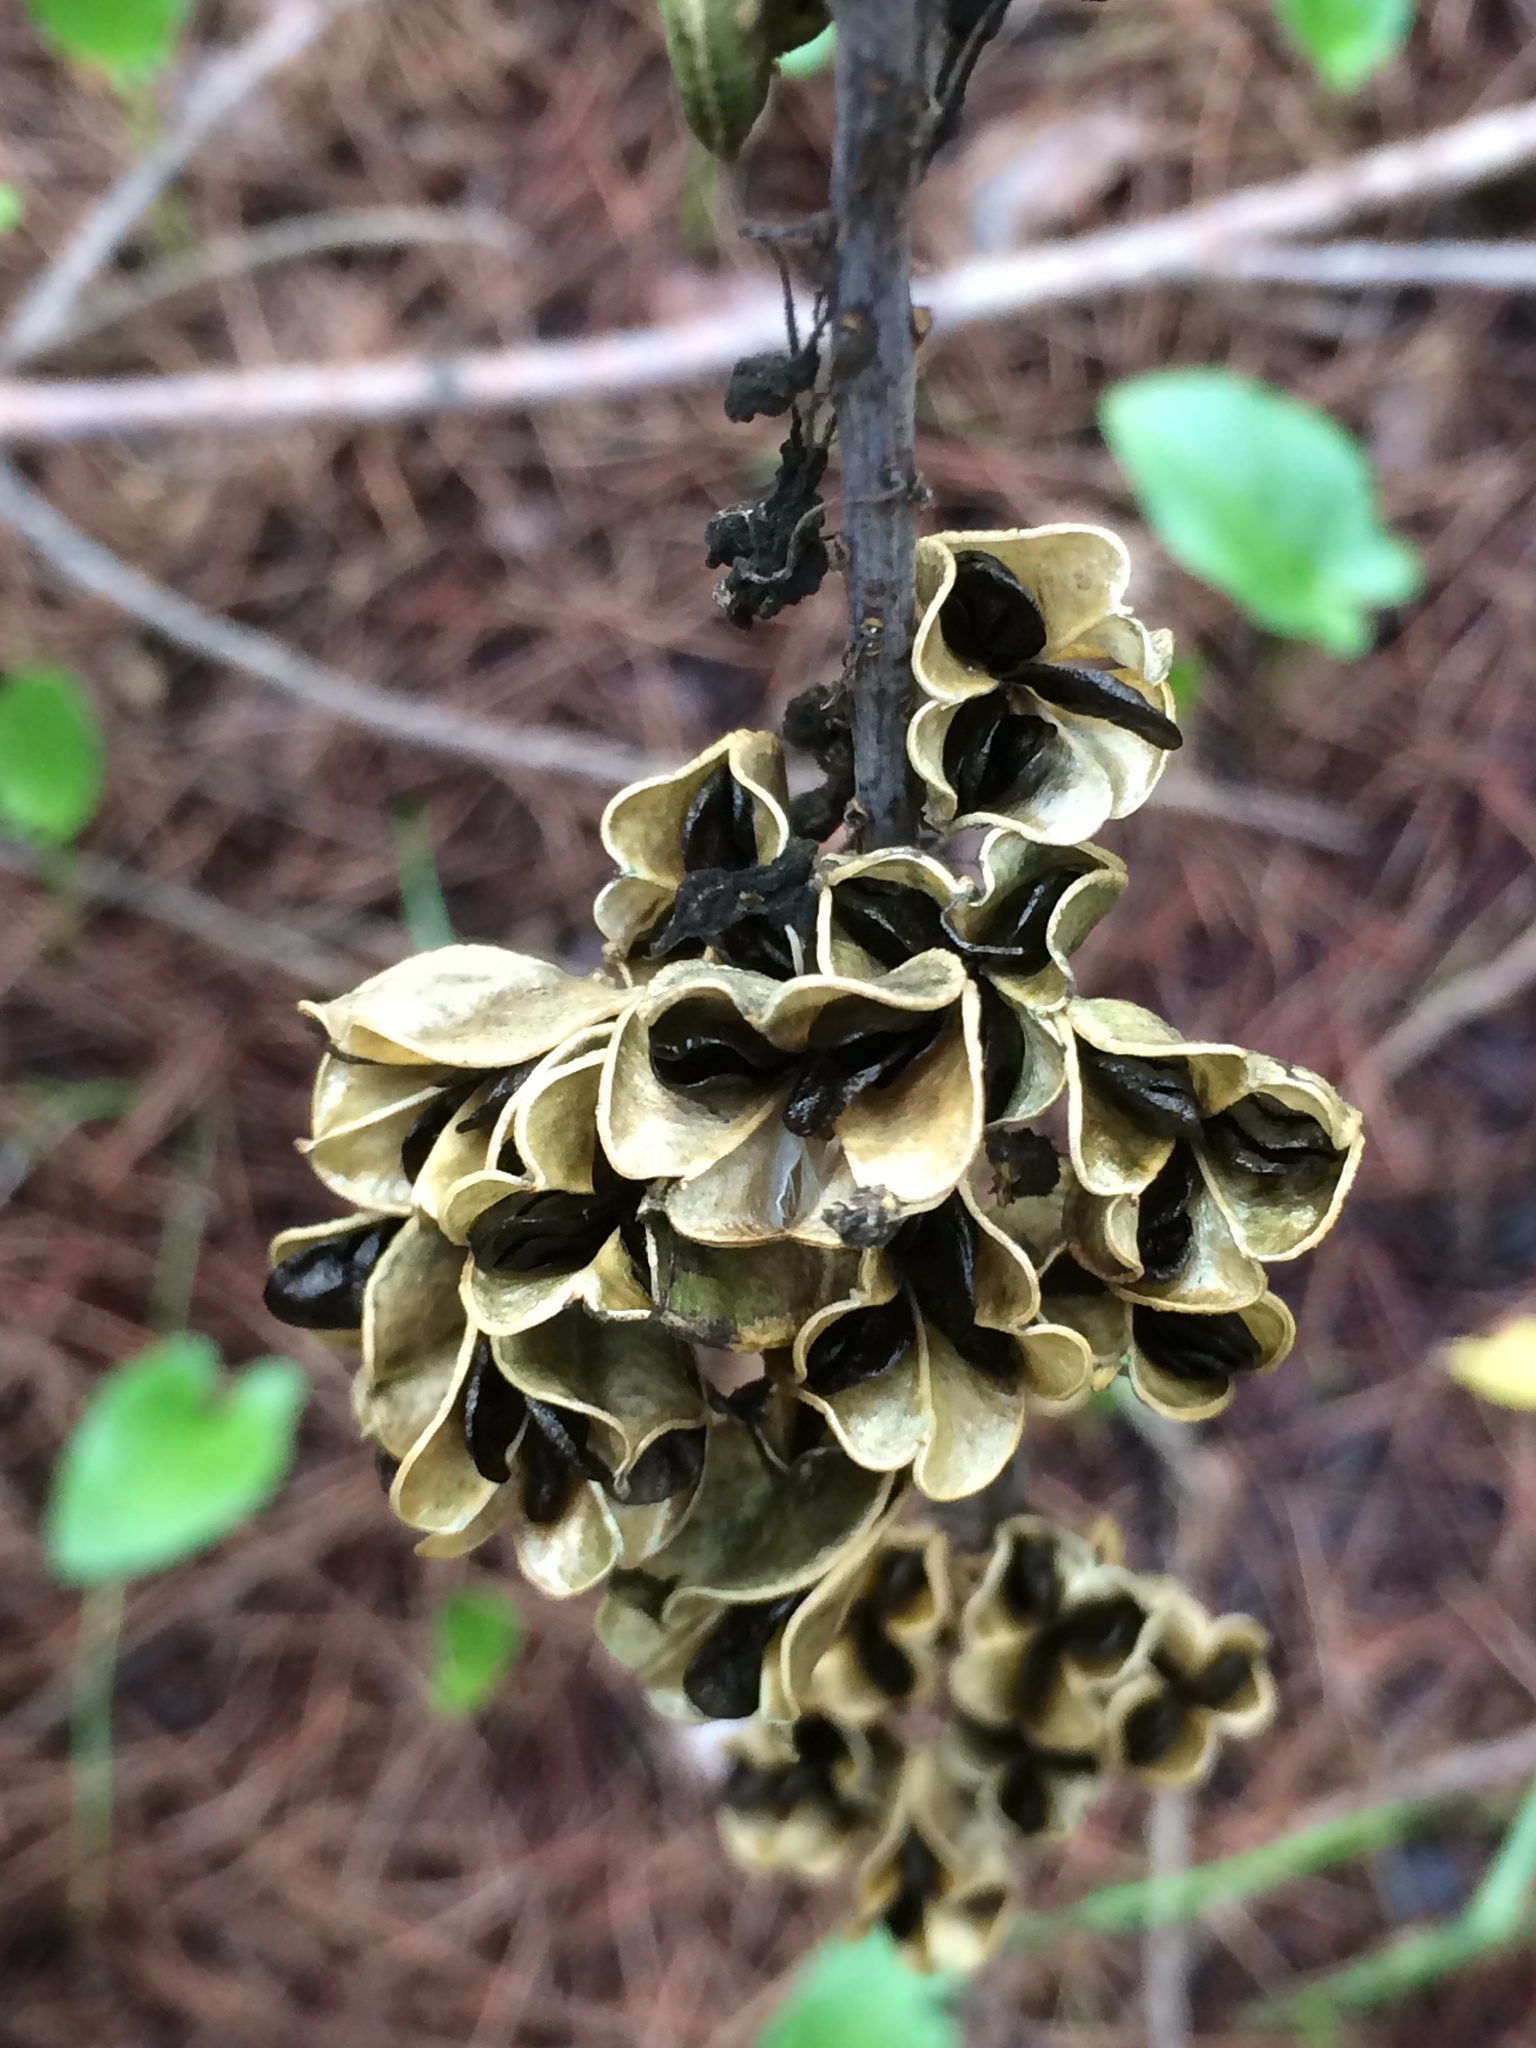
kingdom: Plantae
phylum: Tracheophyta
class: Liliopsida
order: Asparagales
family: Asparagaceae
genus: Drimia
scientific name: Drimia maritima
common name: Maritime squill
